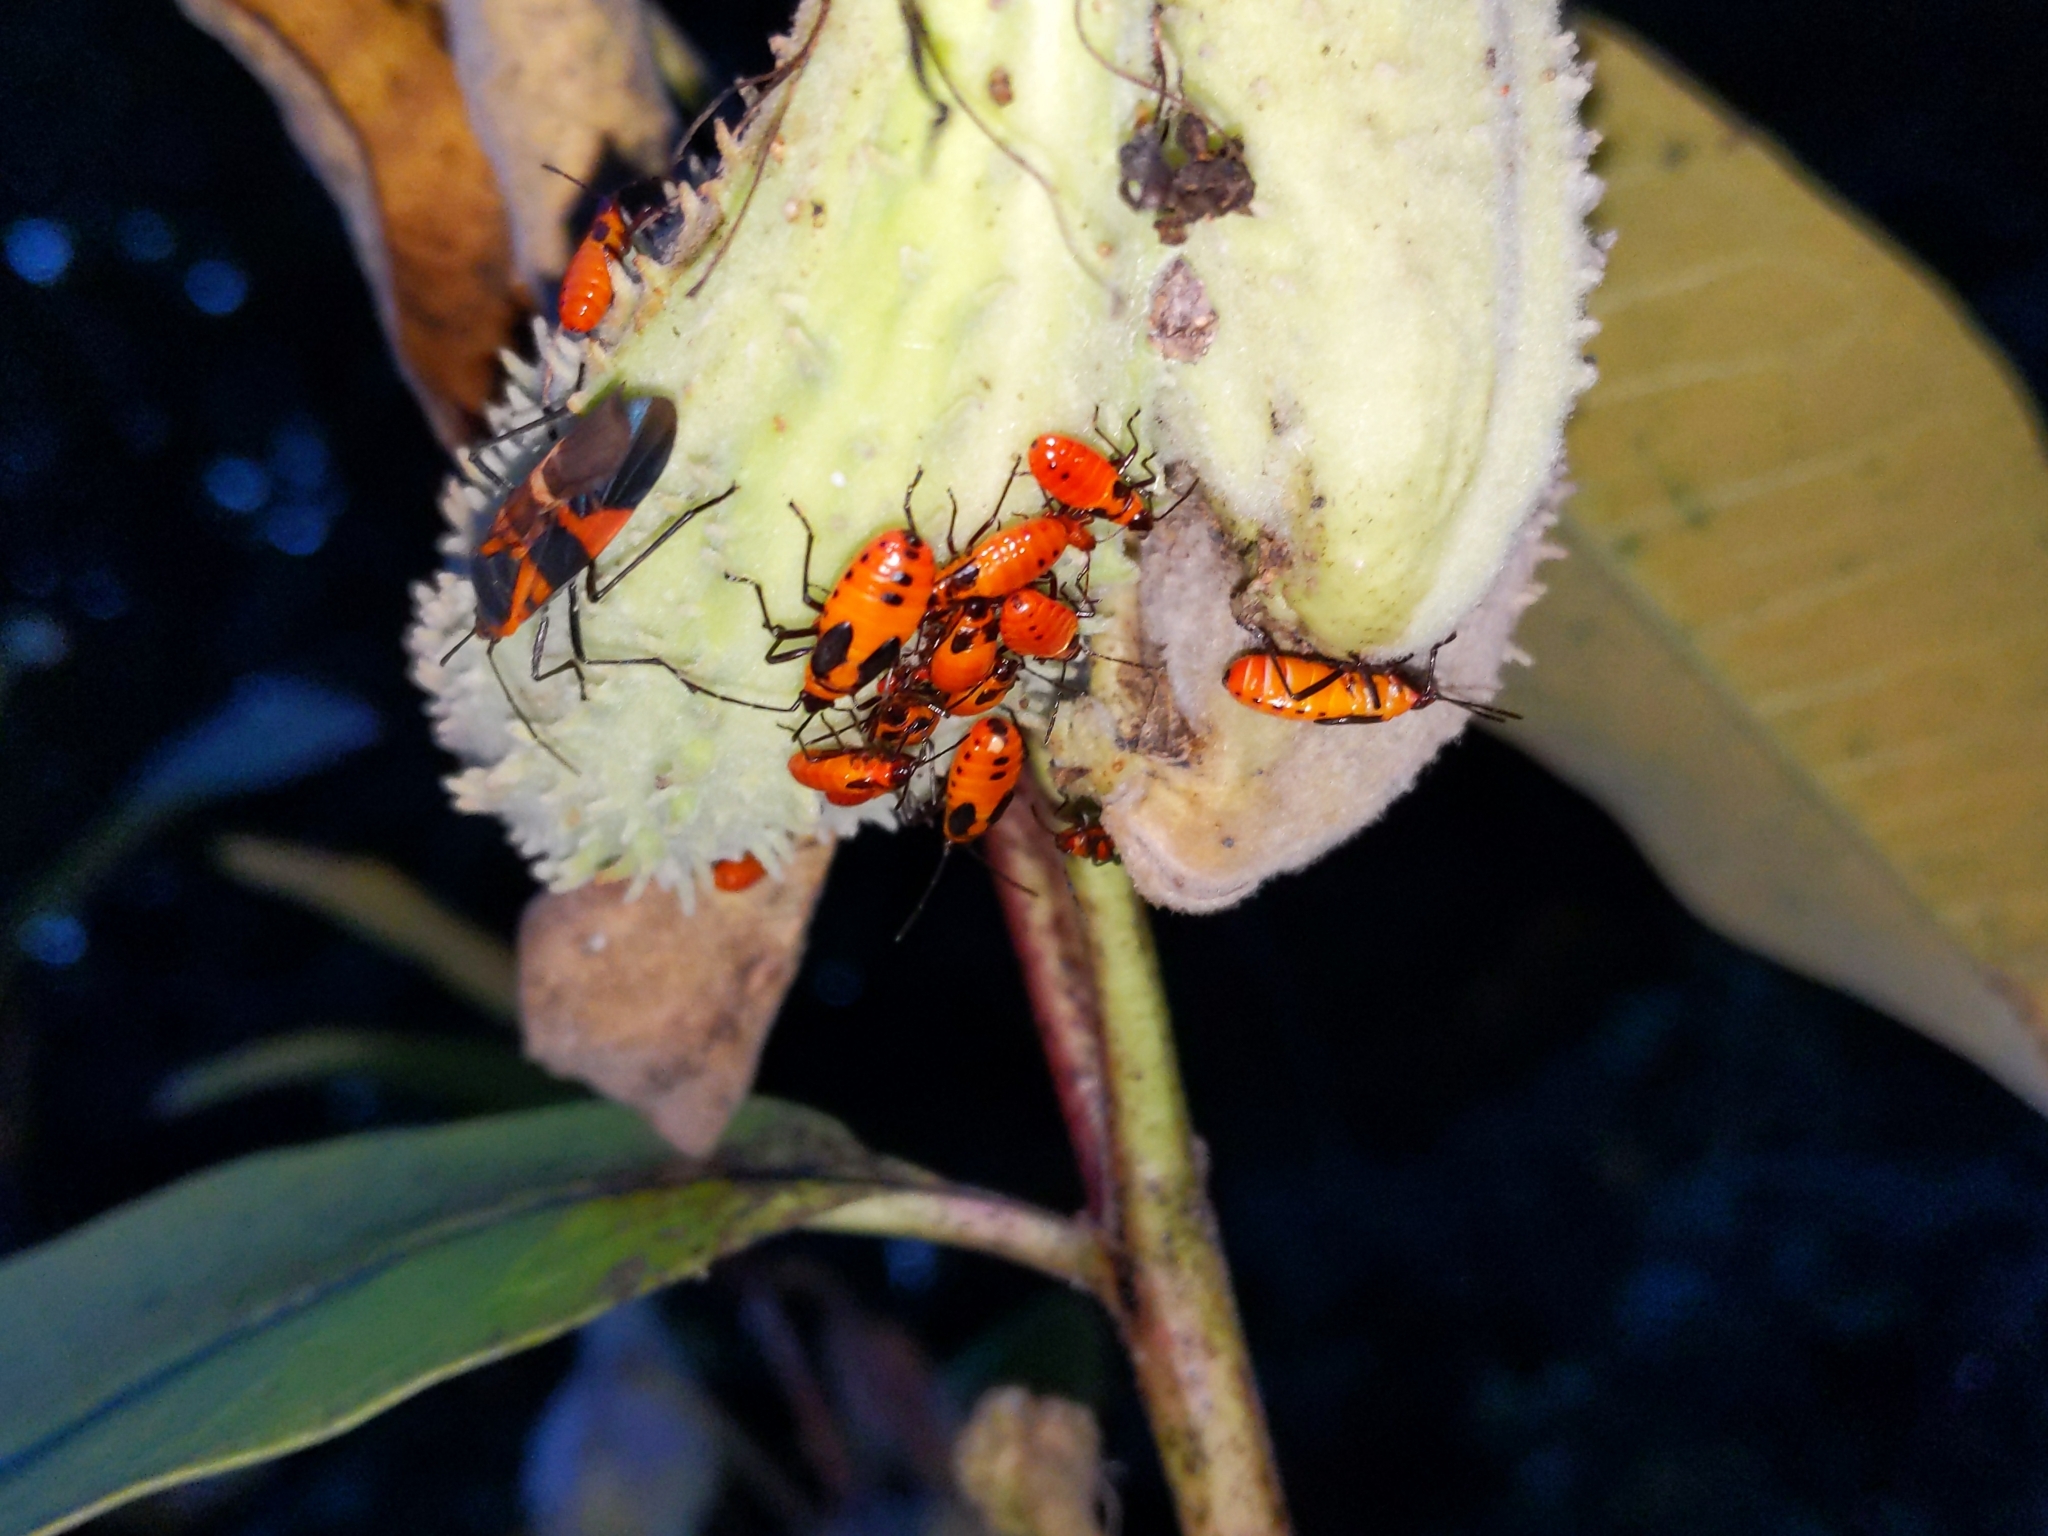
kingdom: Animalia
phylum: Arthropoda
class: Insecta
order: Hemiptera
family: Lygaeidae
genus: Oncopeltus
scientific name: Oncopeltus fasciatus
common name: Large milkweed bug
